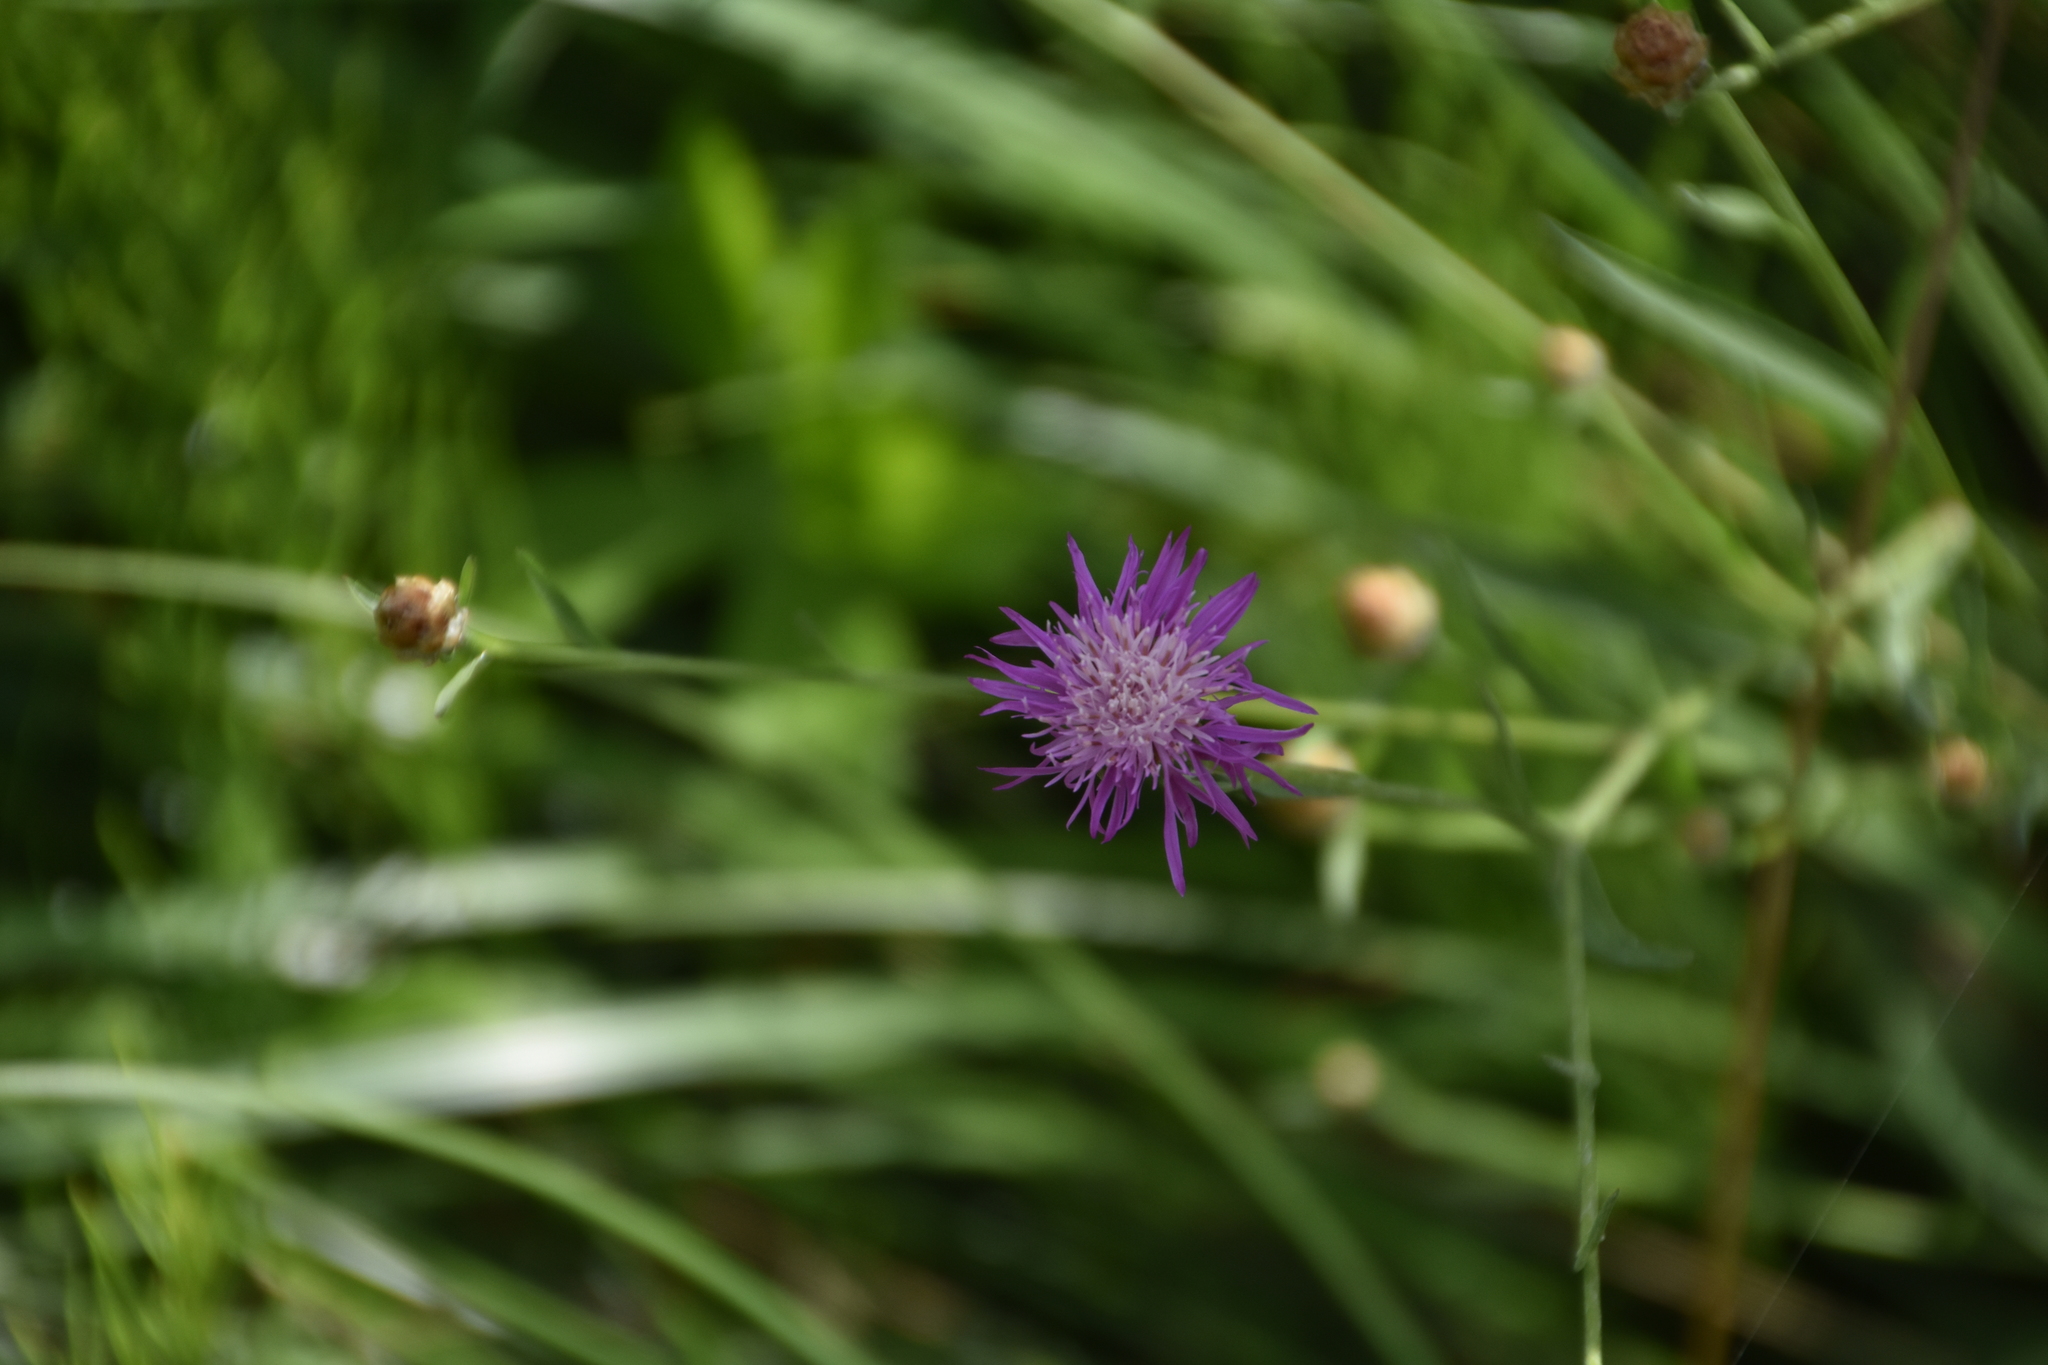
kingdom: Plantae
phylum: Tracheophyta
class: Magnoliopsida
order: Asterales
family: Asteraceae
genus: Centaurea
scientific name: Centaurea stoebe
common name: Spotted knapweed
